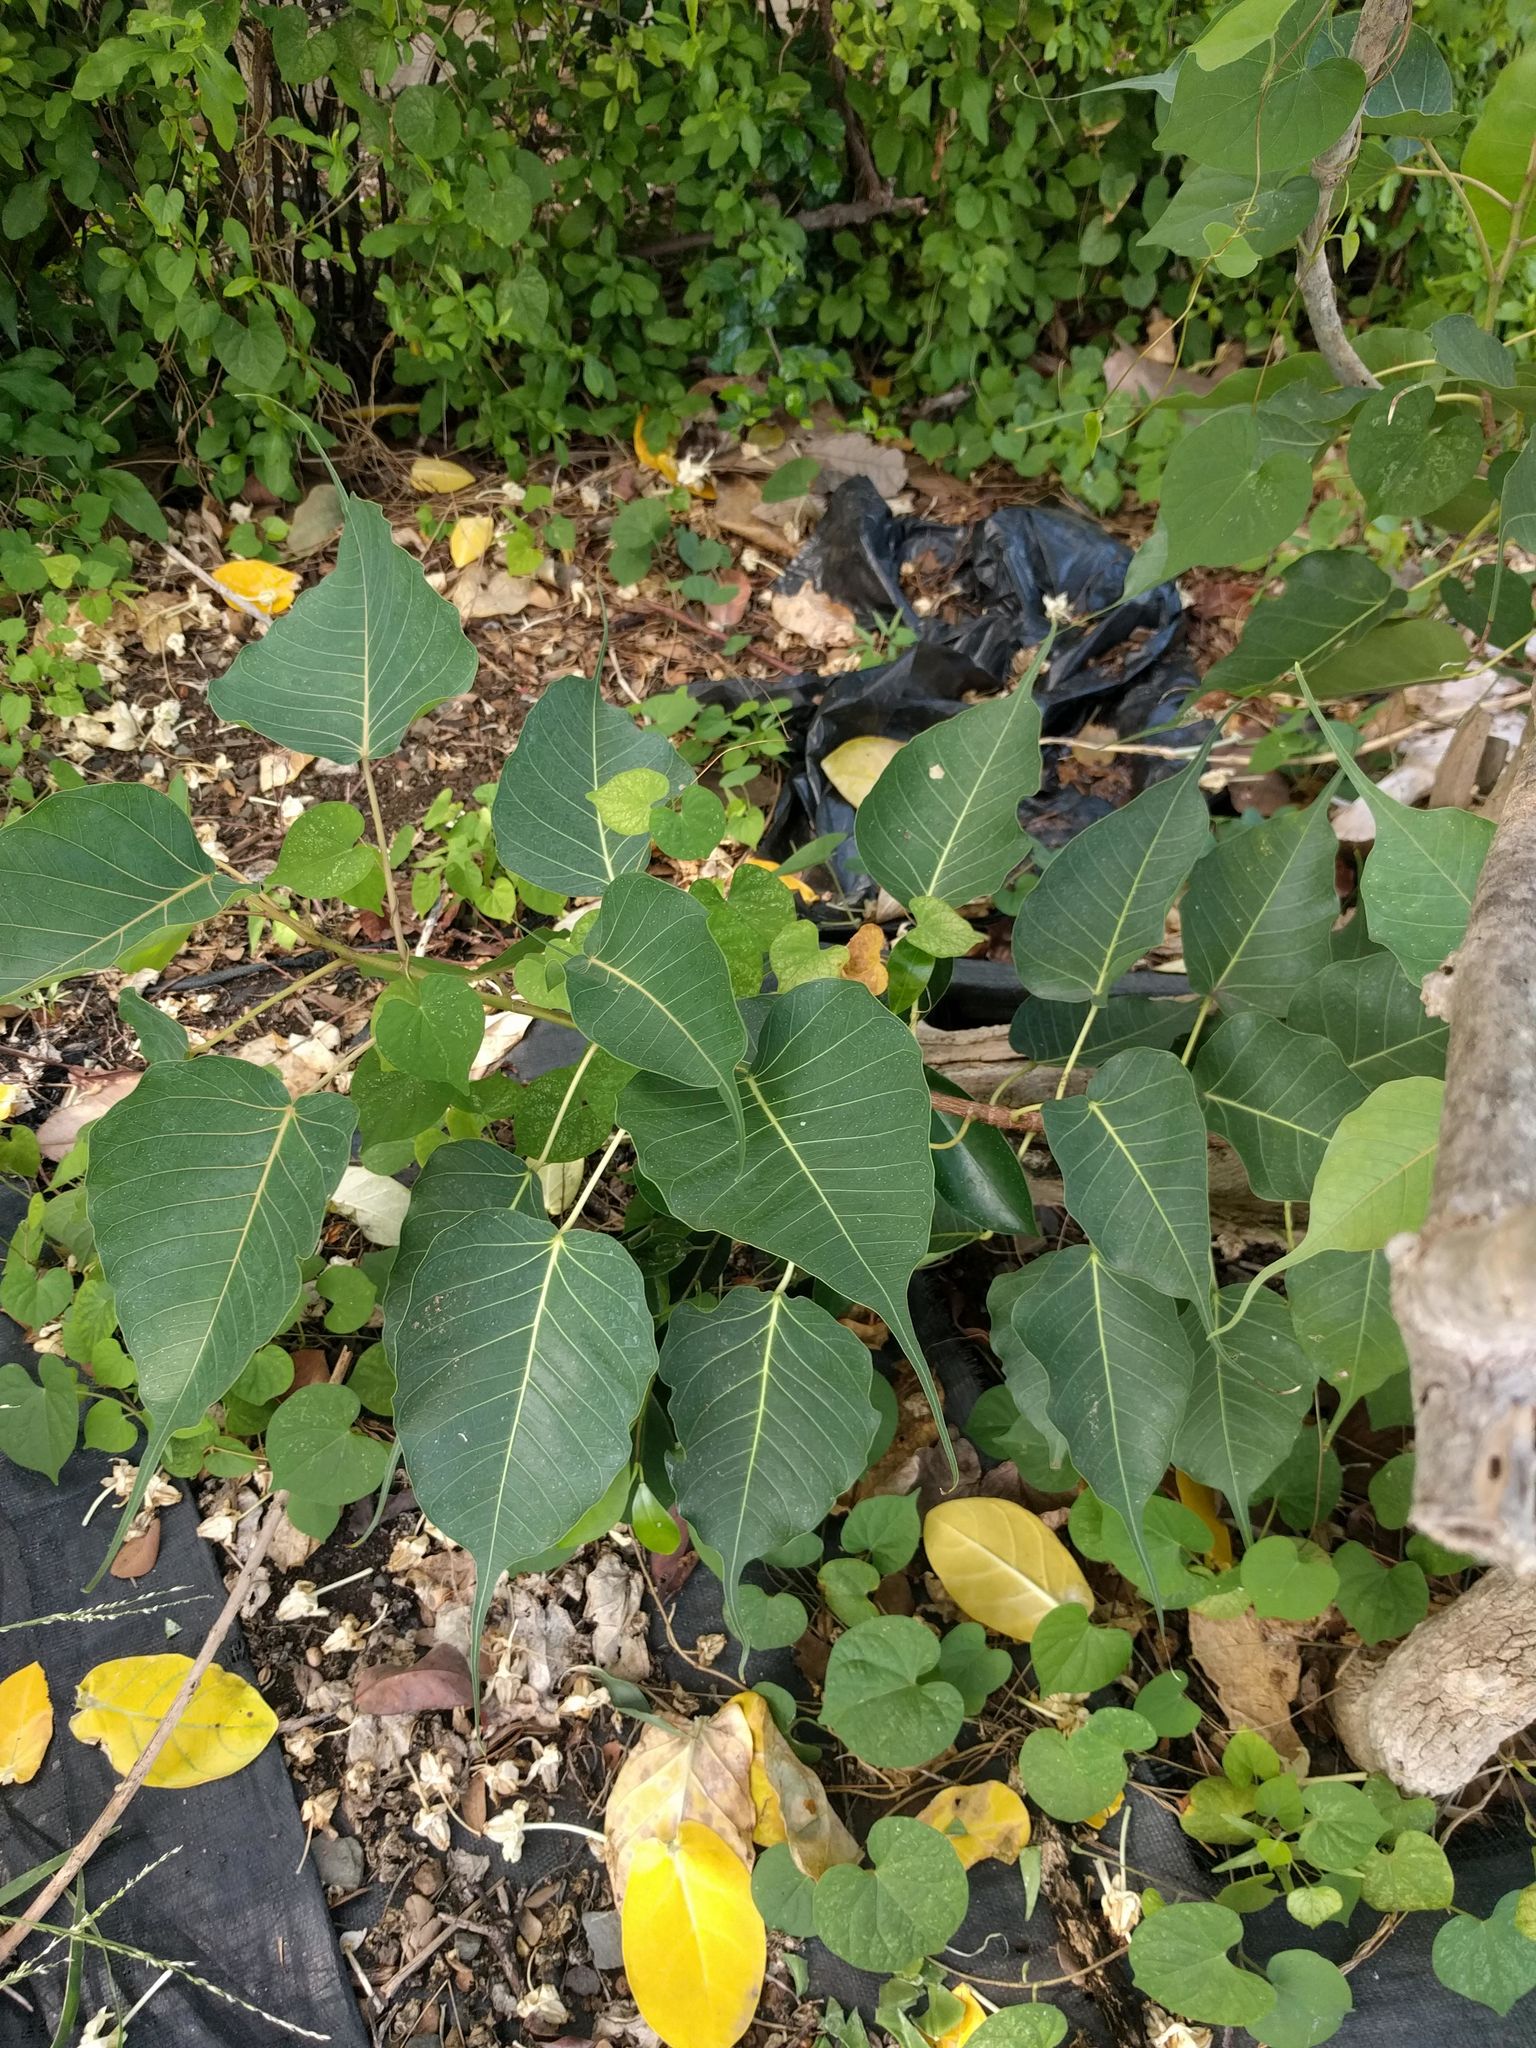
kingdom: Plantae
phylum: Tracheophyta
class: Magnoliopsida
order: Rosales
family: Moraceae
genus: Ficus
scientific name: Ficus religiosa
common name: Bodhi tree
